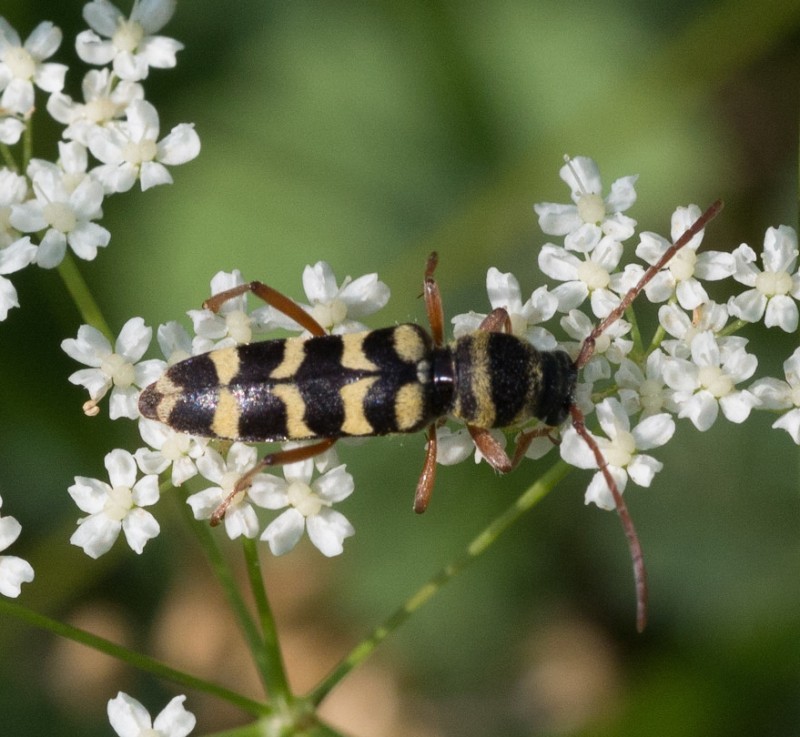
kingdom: Animalia
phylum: Arthropoda
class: Insecta
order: Coleoptera
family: Cerambycidae
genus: Plagionotus
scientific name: Plagionotus floralis
